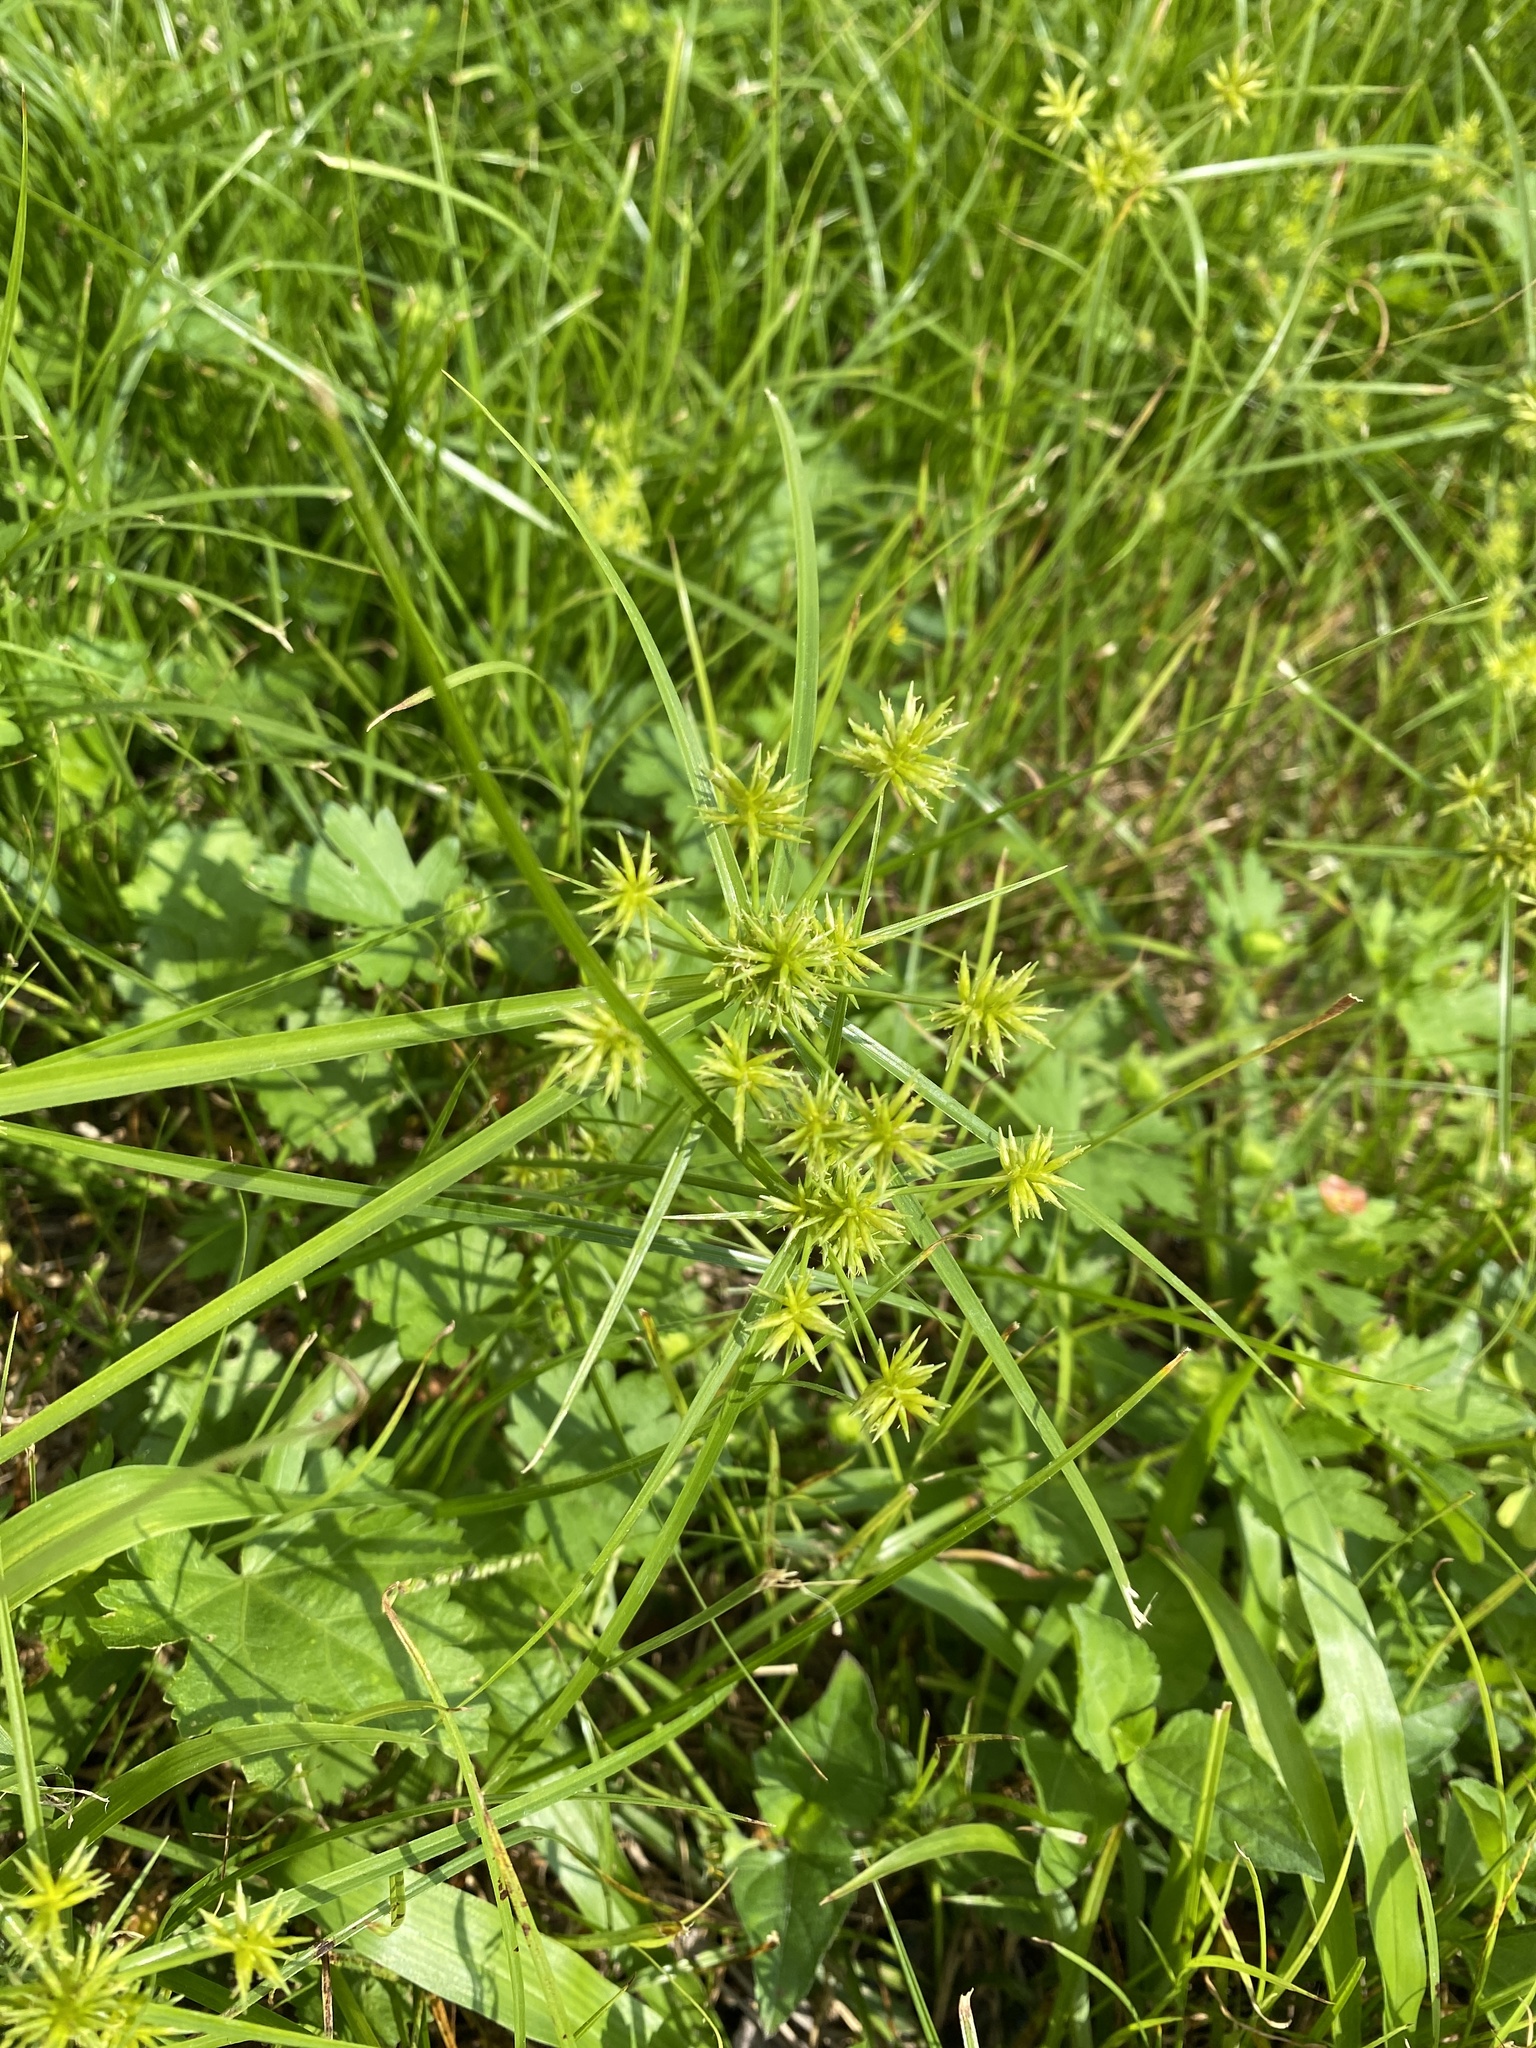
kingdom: Plantae
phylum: Tracheophyta
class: Liliopsida
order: Poales
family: Cyperaceae
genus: Cyperus
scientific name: Cyperus croceus
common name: Baldwin's flatsedge
